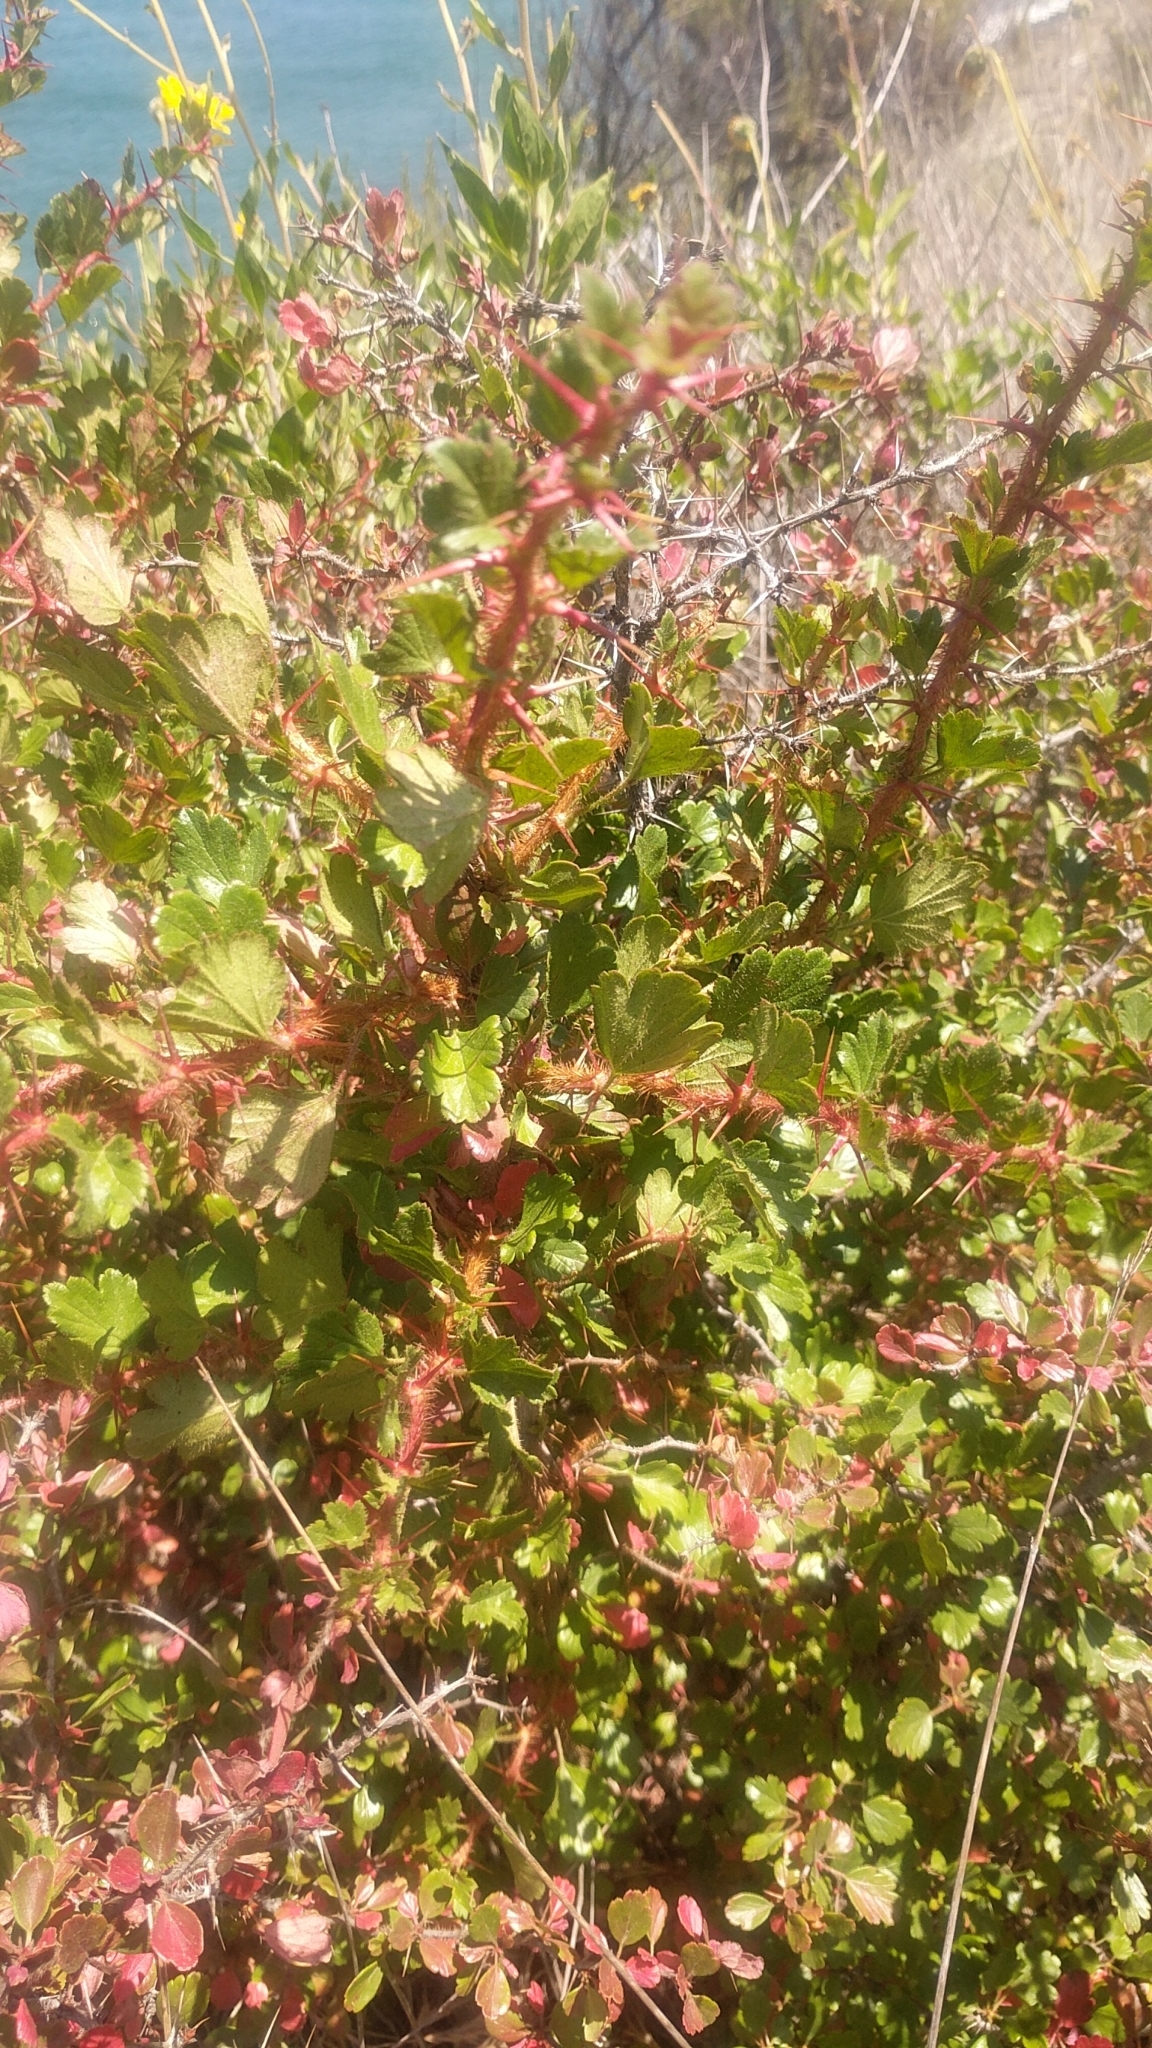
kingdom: Plantae
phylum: Tracheophyta
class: Magnoliopsida
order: Saxifragales
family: Grossulariaceae
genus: Ribes
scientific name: Ribes speciosum
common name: Fuchsia-flower gooseberry
